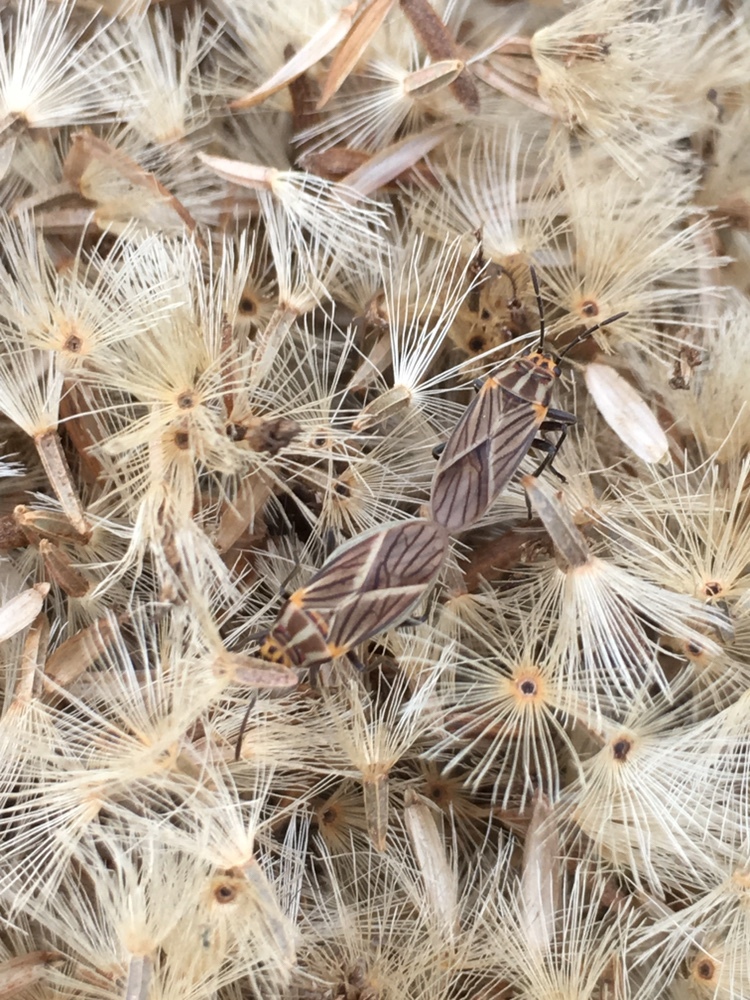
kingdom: Animalia
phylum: Arthropoda
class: Insecta
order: Hemiptera
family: Lygaeidae
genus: Torvochrimnus
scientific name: Torvochrimnus poeyi
